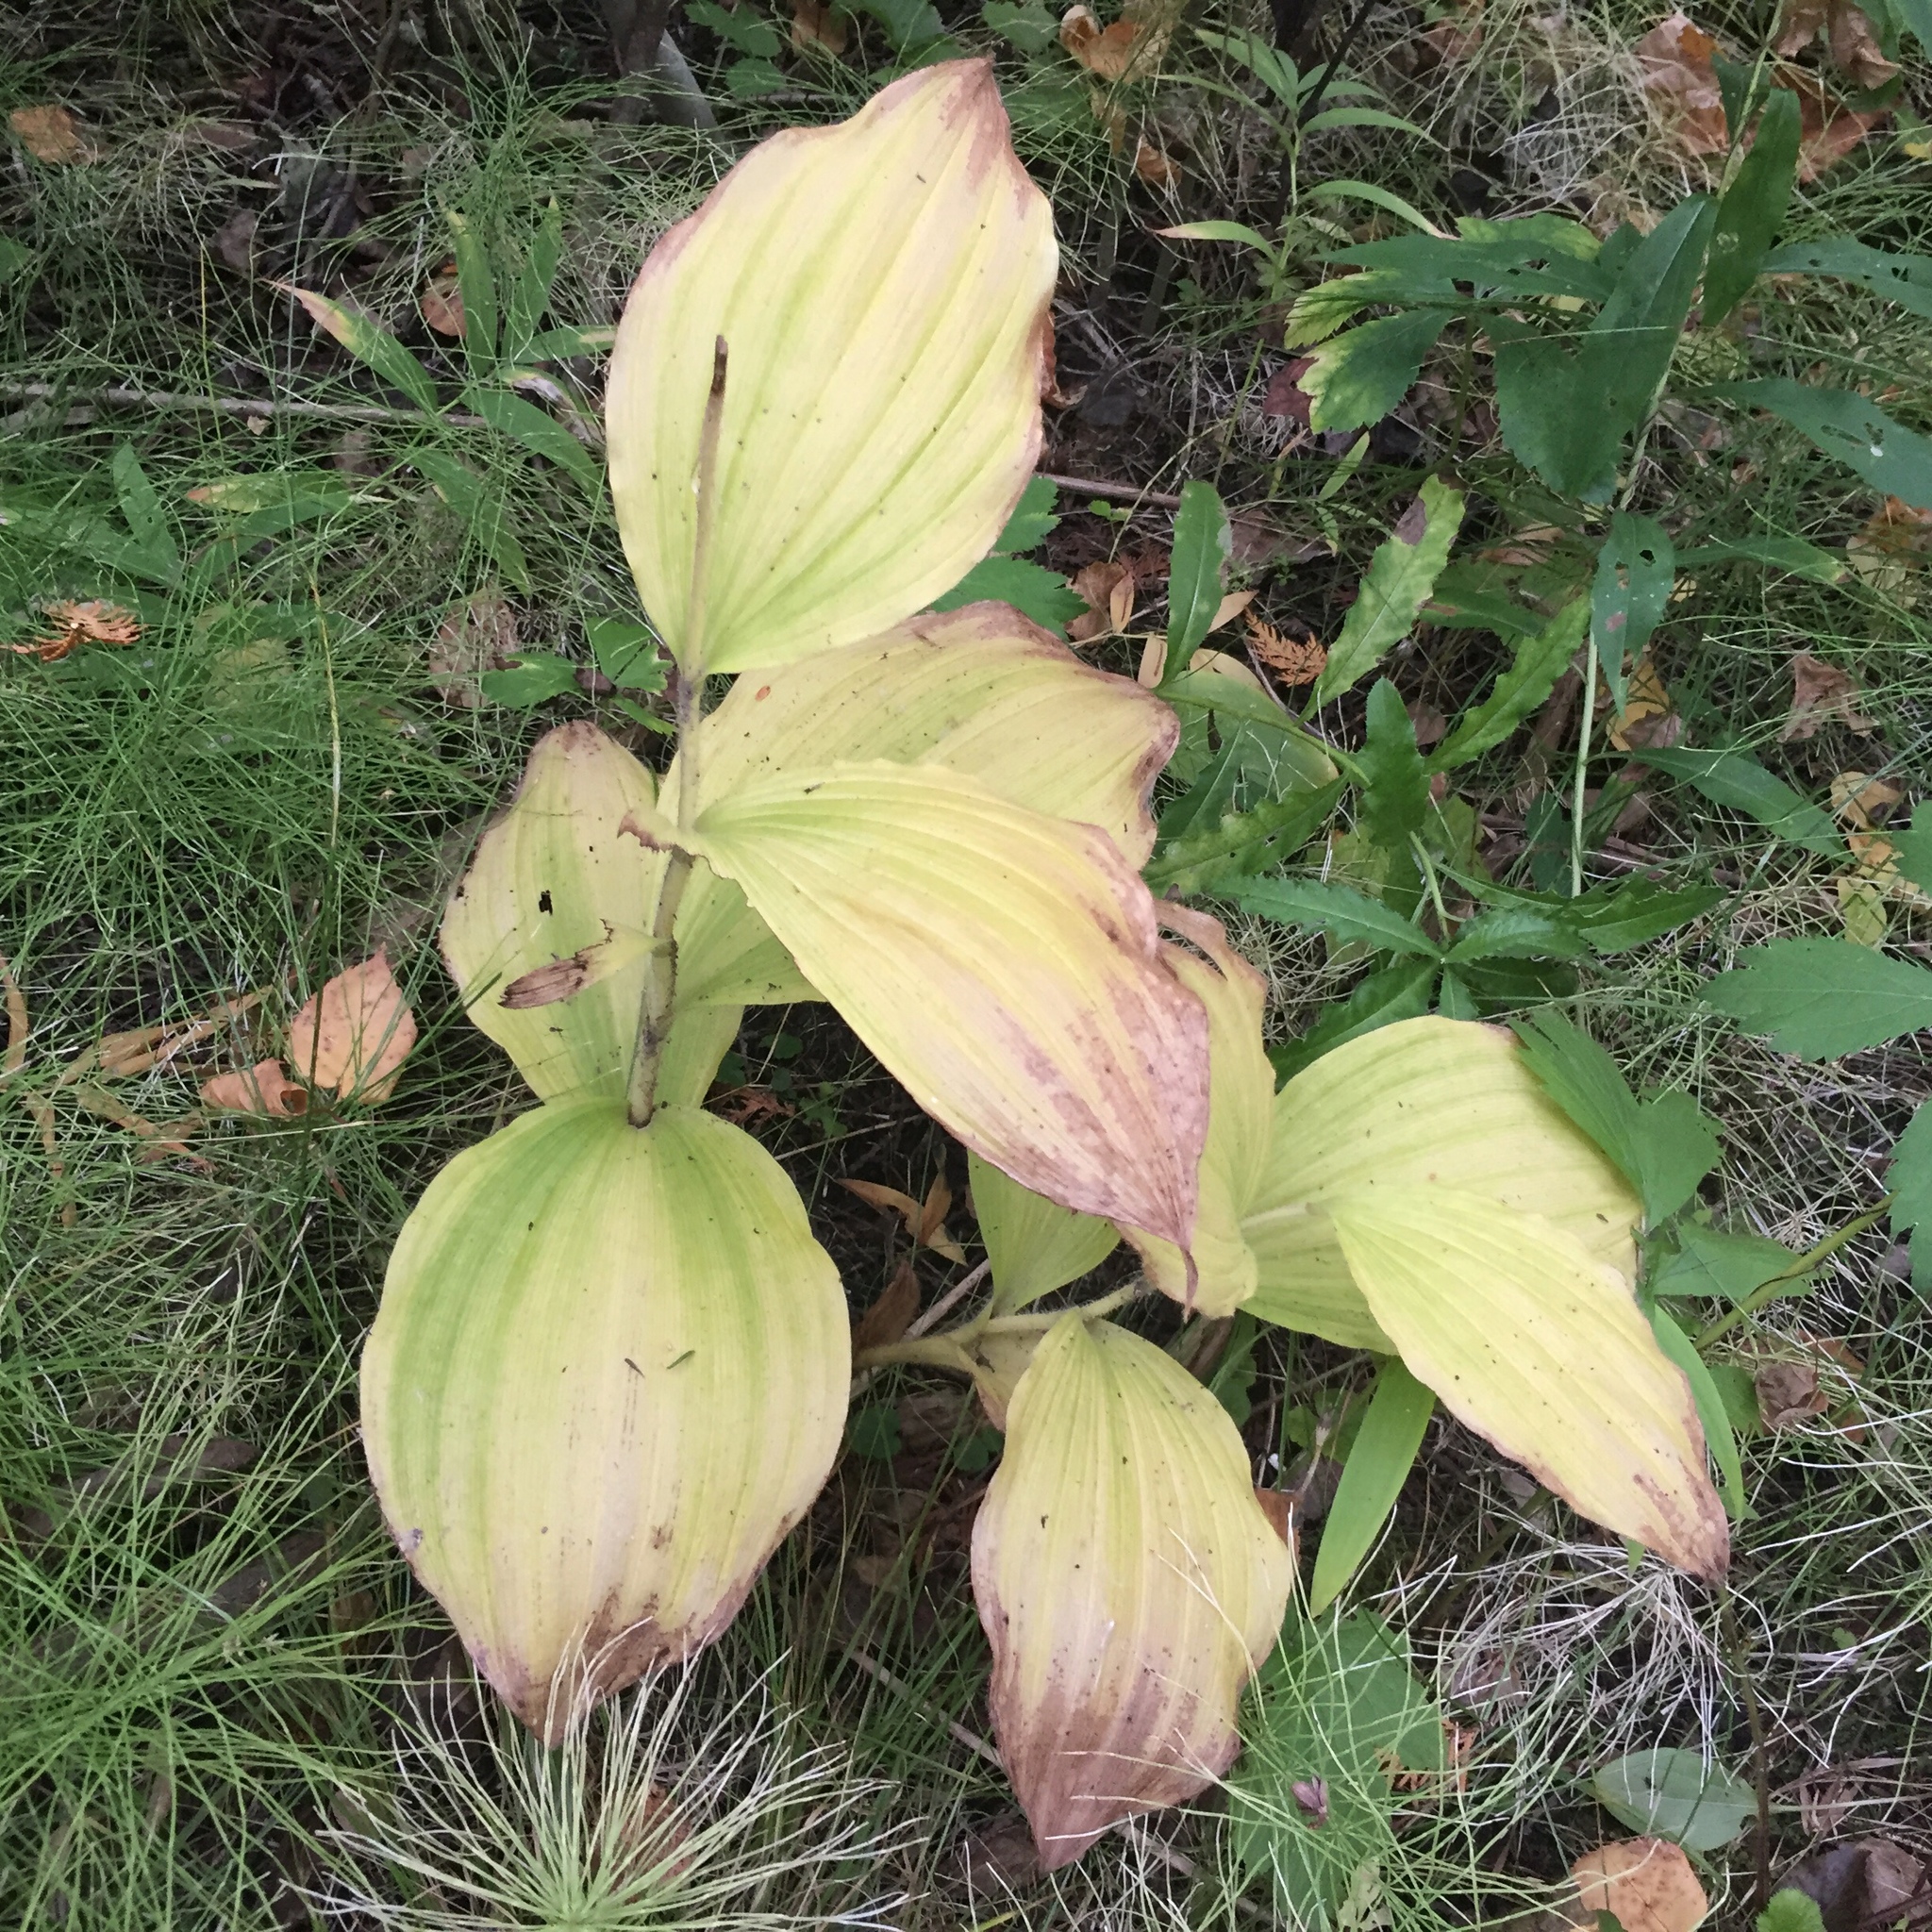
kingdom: Plantae
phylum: Tracheophyta
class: Liliopsida
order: Asparagales
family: Orchidaceae
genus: Cypripedium
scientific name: Cypripedium reginae
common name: Queen lady's-slipper
